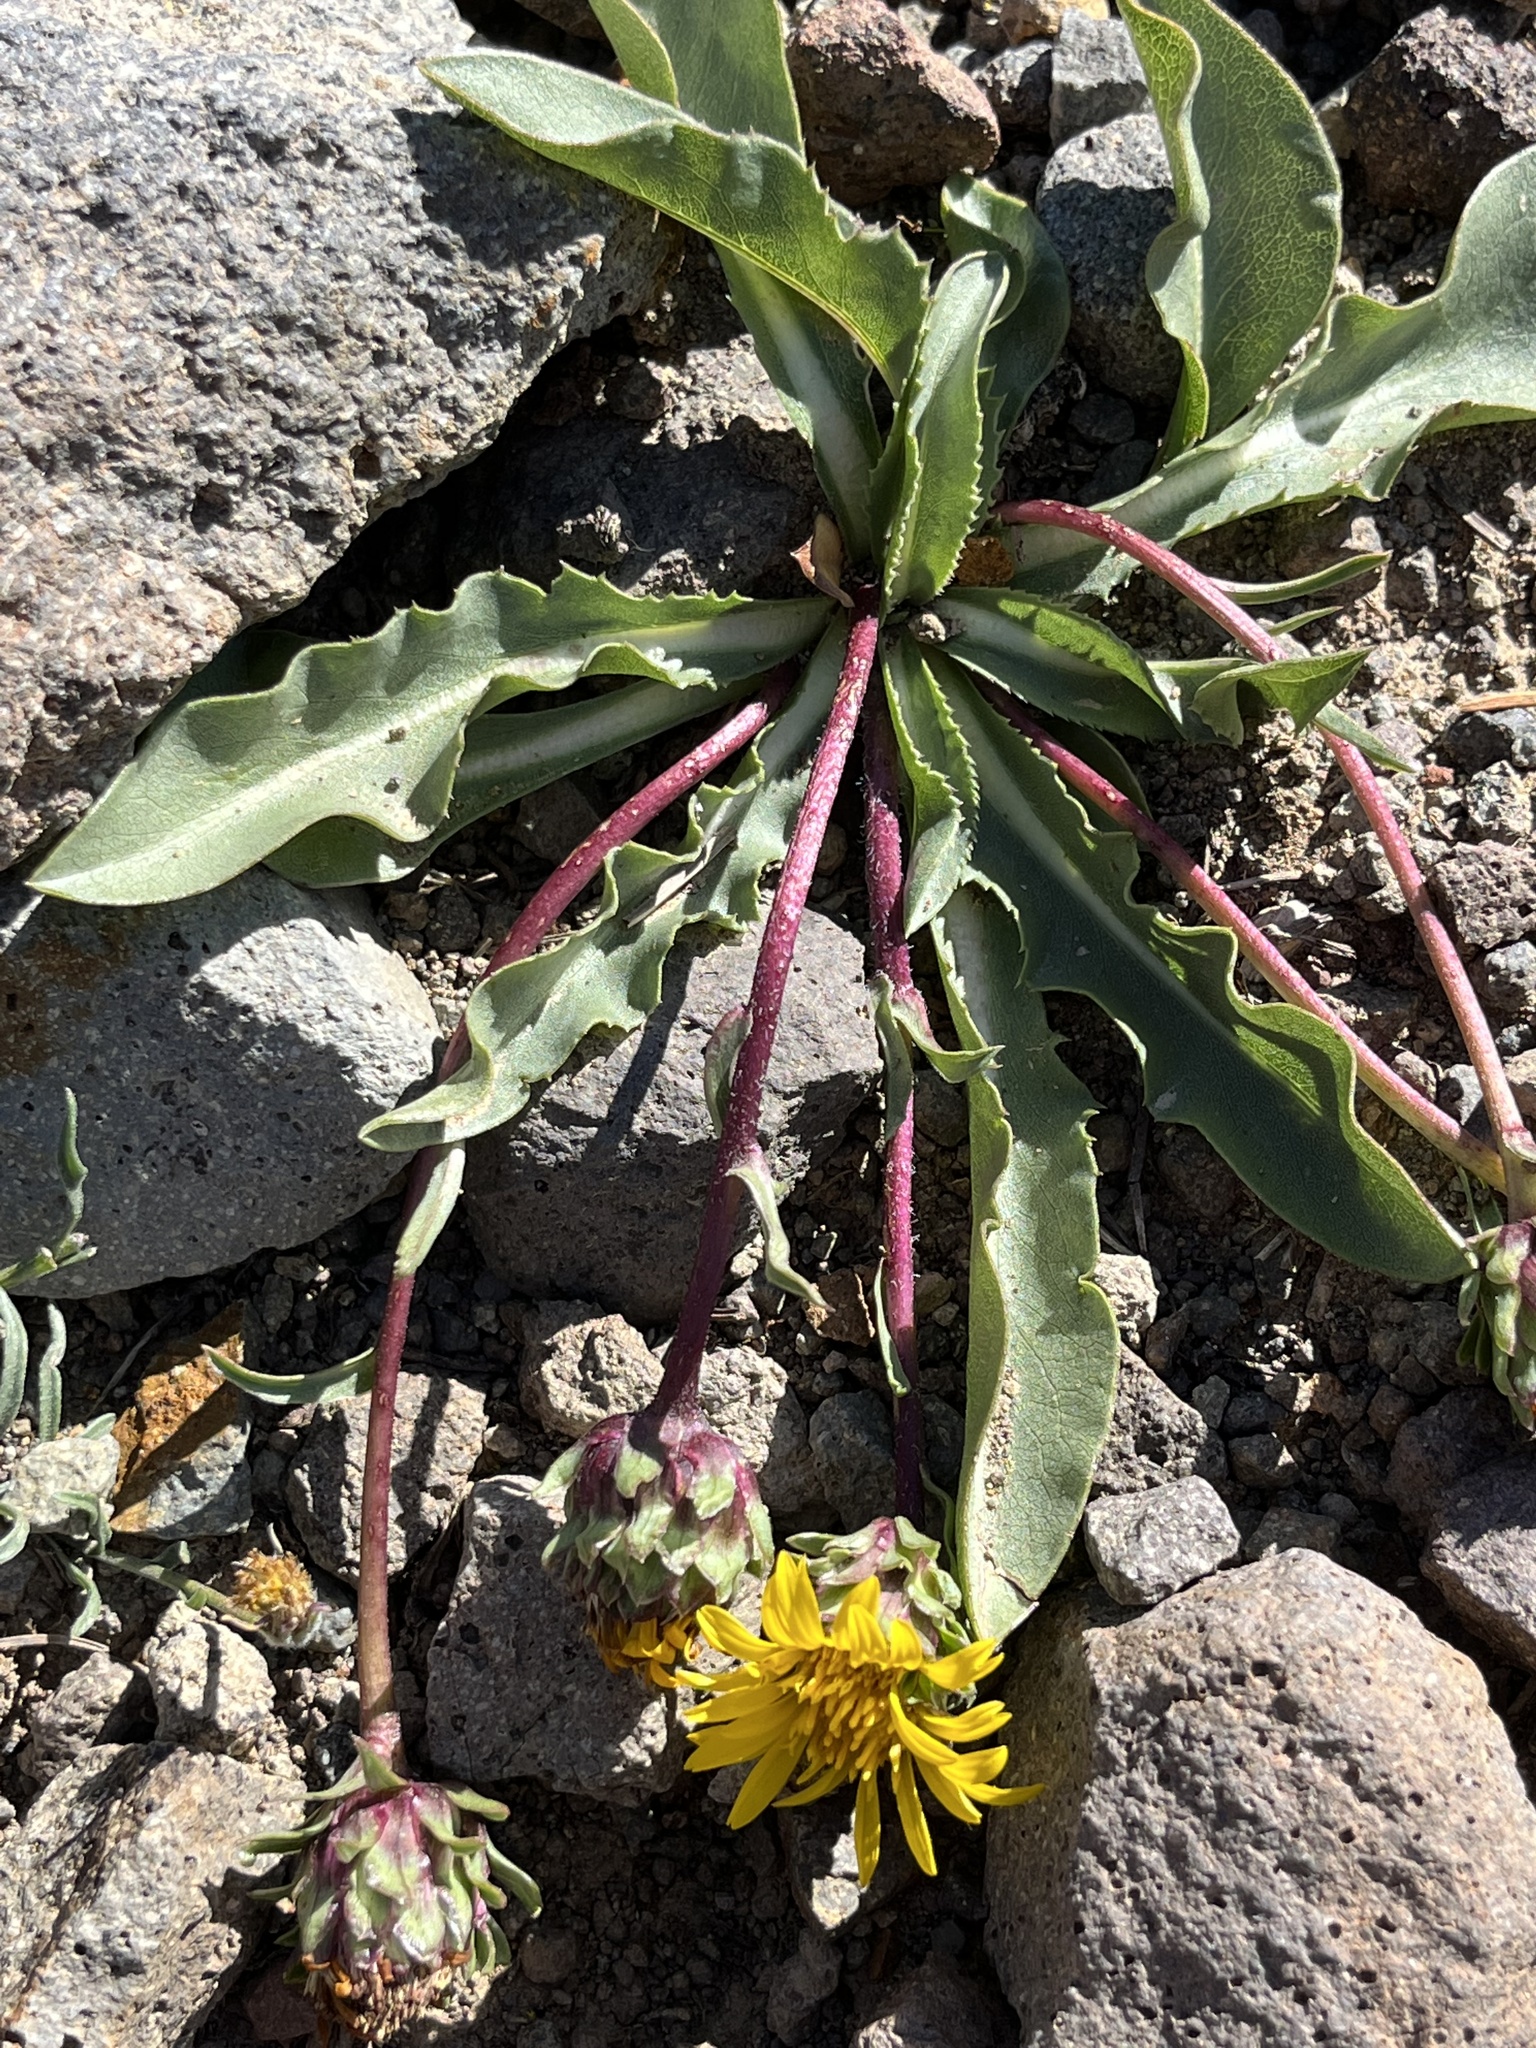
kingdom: Plantae
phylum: Tracheophyta
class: Magnoliopsida
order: Asterales
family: Asteraceae
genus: Pyrrocoma
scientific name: Pyrrocoma apargioides
